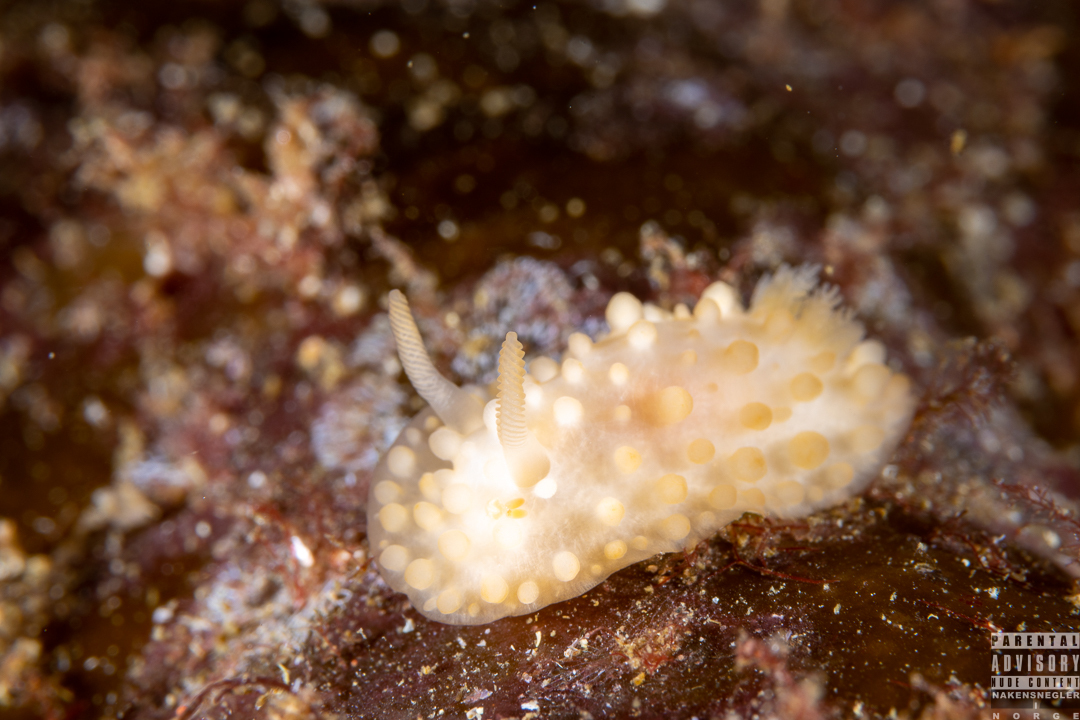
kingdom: Animalia
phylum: Mollusca
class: Gastropoda
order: Nudibranchia
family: Onchidorididae
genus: Adalaria
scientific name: Adalaria loveni
